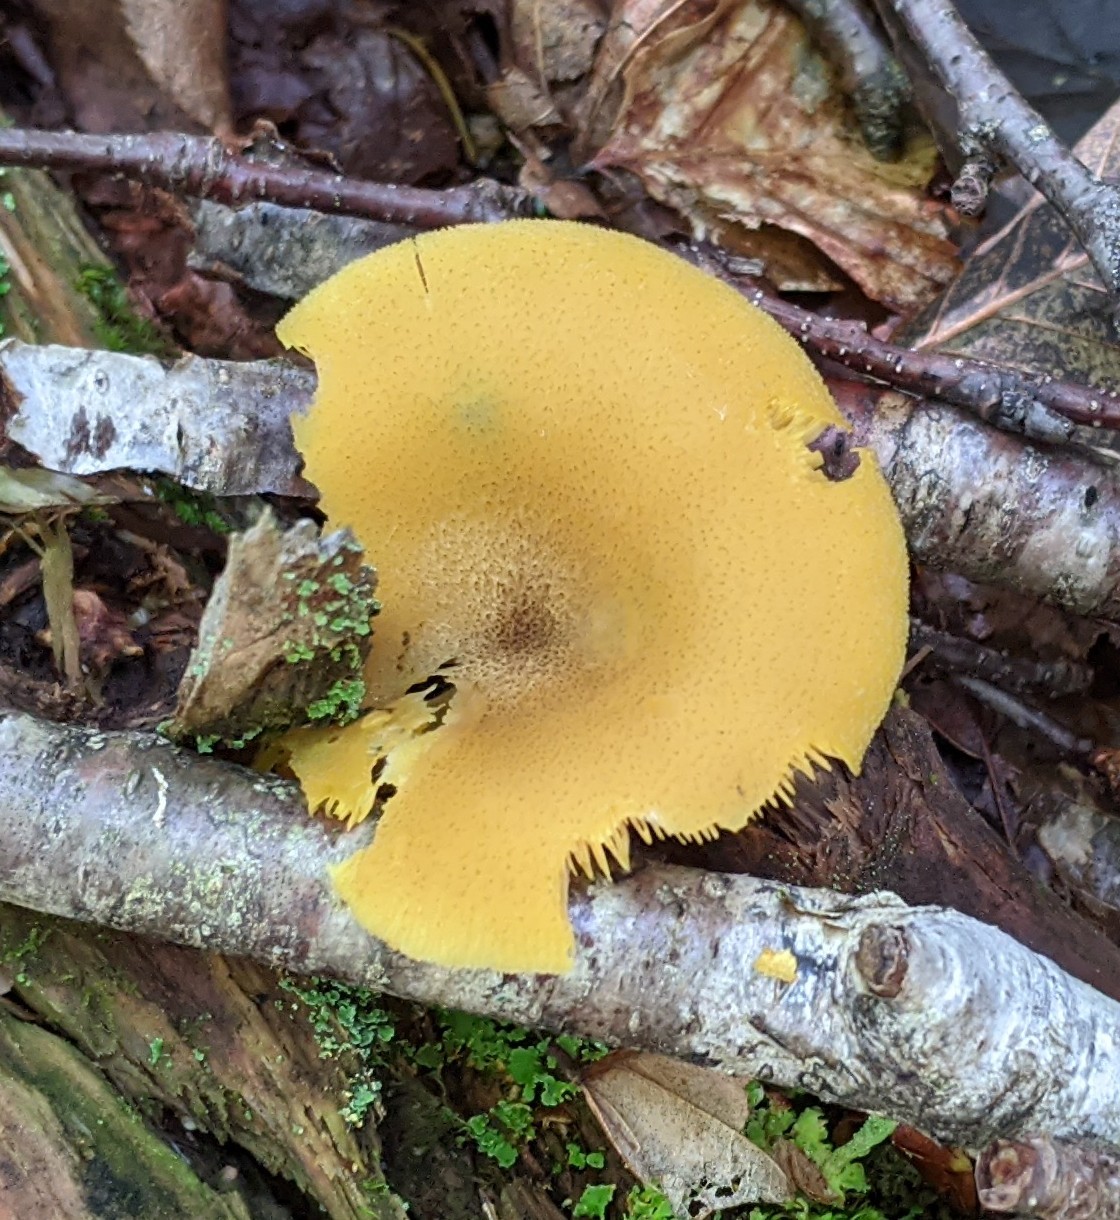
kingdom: Fungi
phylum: Basidiomycota
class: Agaricomycetes
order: Agaricales
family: Tricholomataceae
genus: Tricholomopsis
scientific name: Tricholomopsis decora
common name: Prunes and custard
